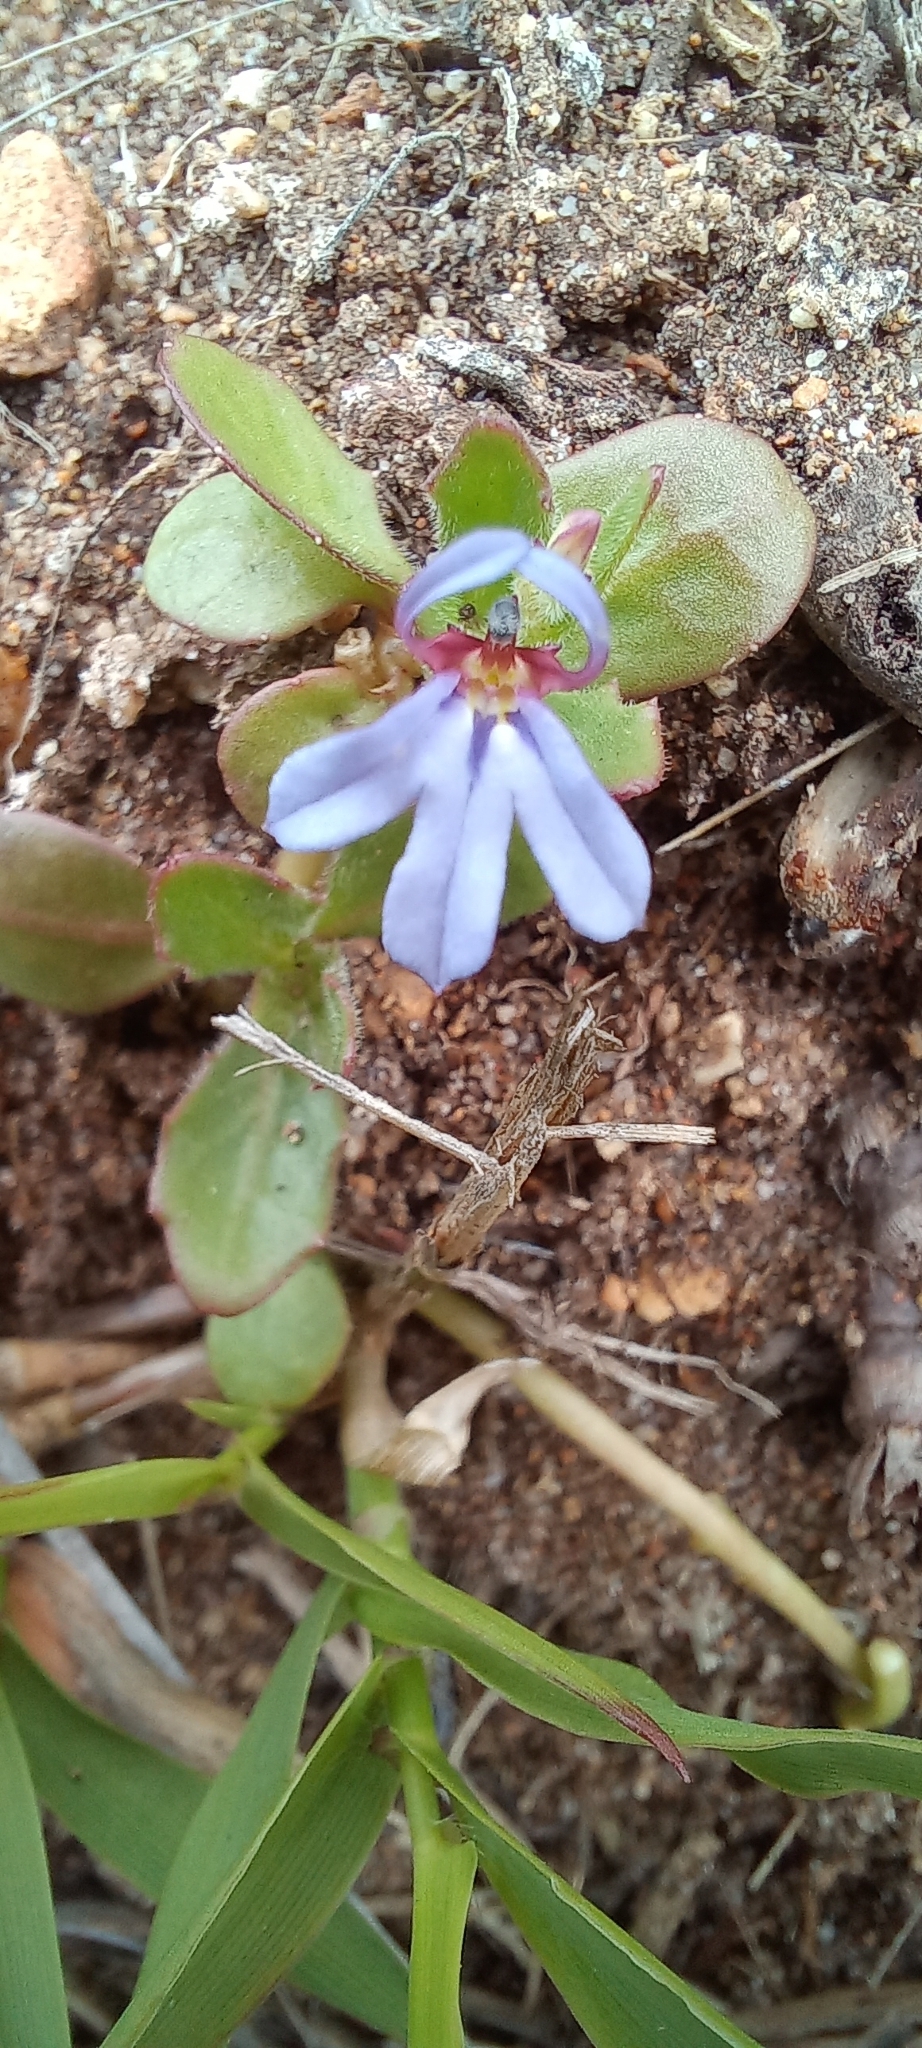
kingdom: Plantae
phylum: Tracheophyta
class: Magnoliopsida
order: Asterales
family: Campanulaceae
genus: Lobelia
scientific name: Lobelia anceps
